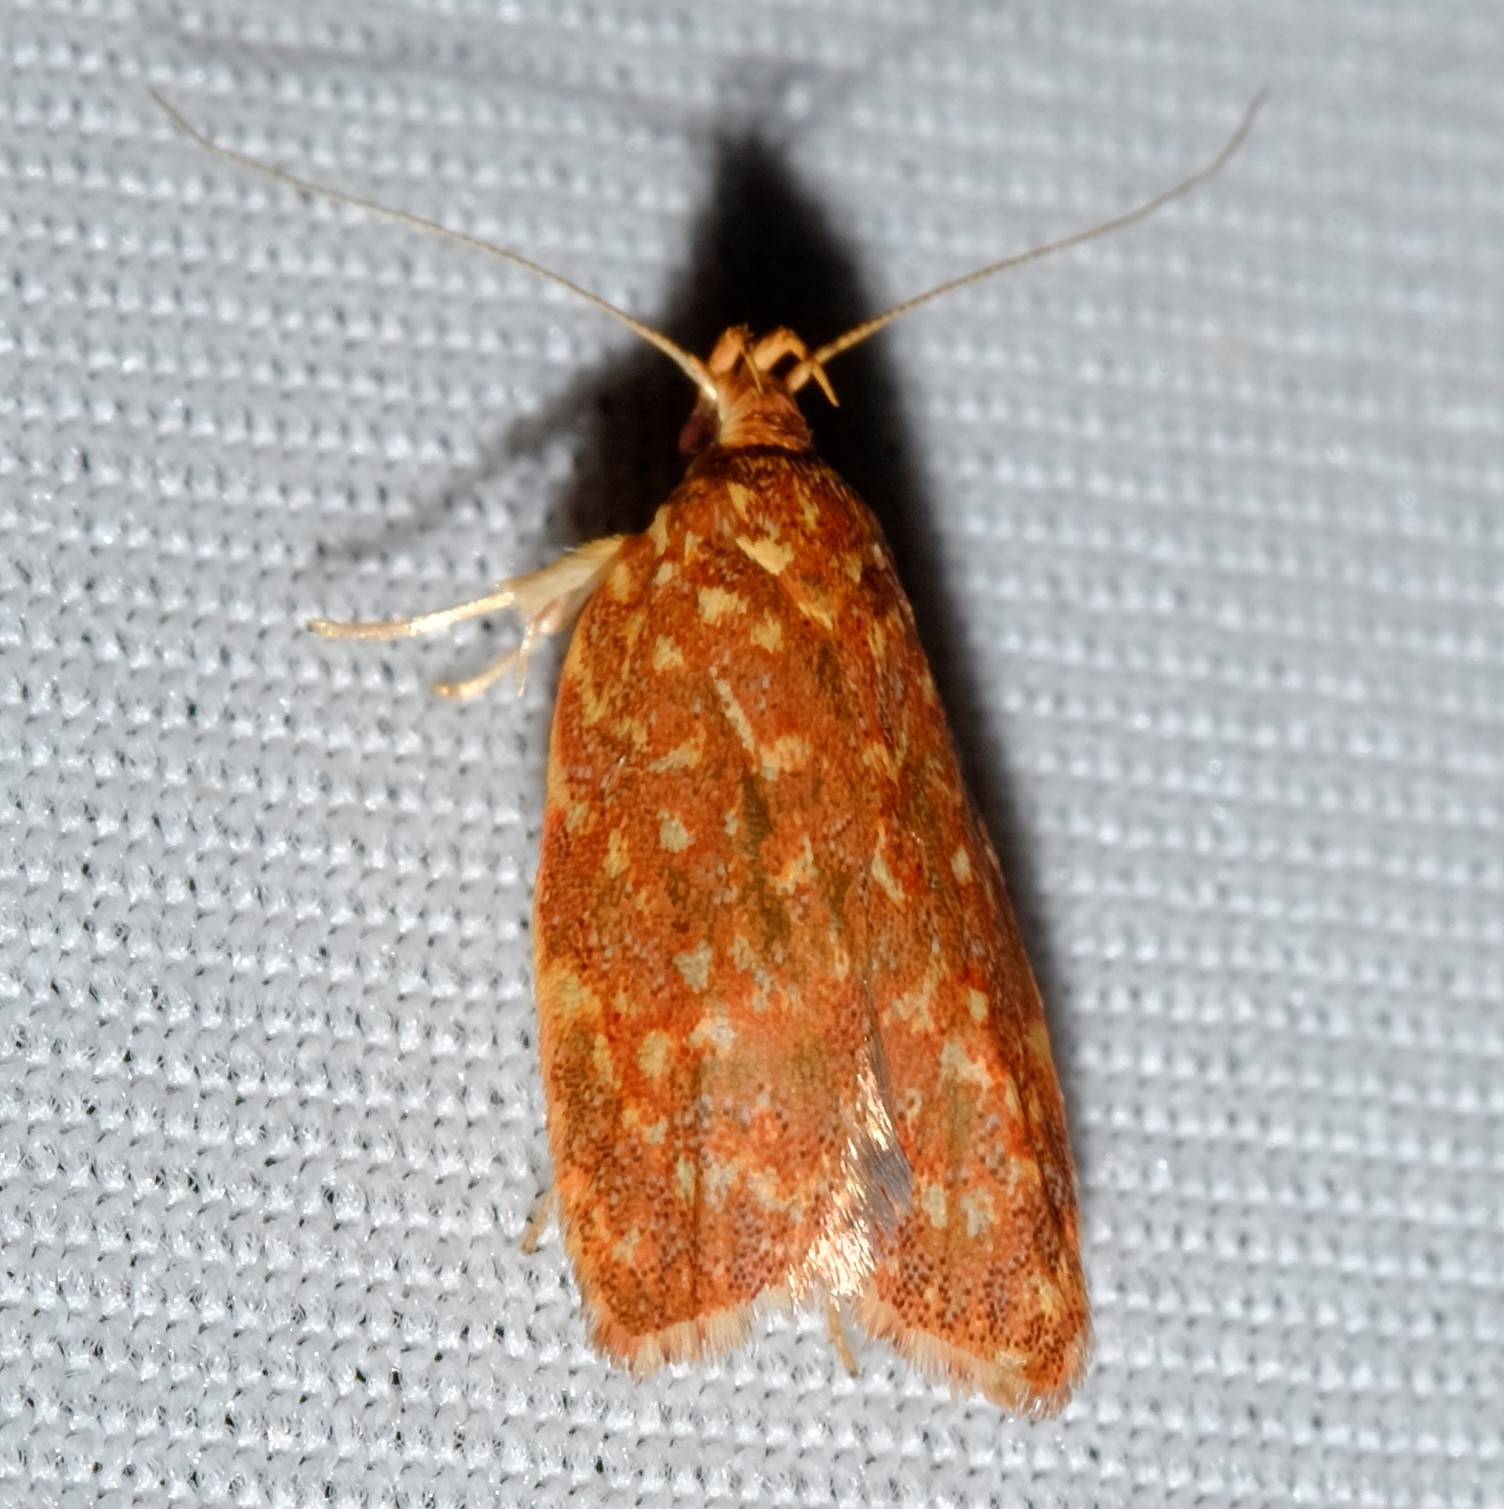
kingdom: Animalia
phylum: Arthropoda
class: Insecta
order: Lepidoptera
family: Oecophoridae
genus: Syringoseca
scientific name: Syringoseca rhodoxantha
